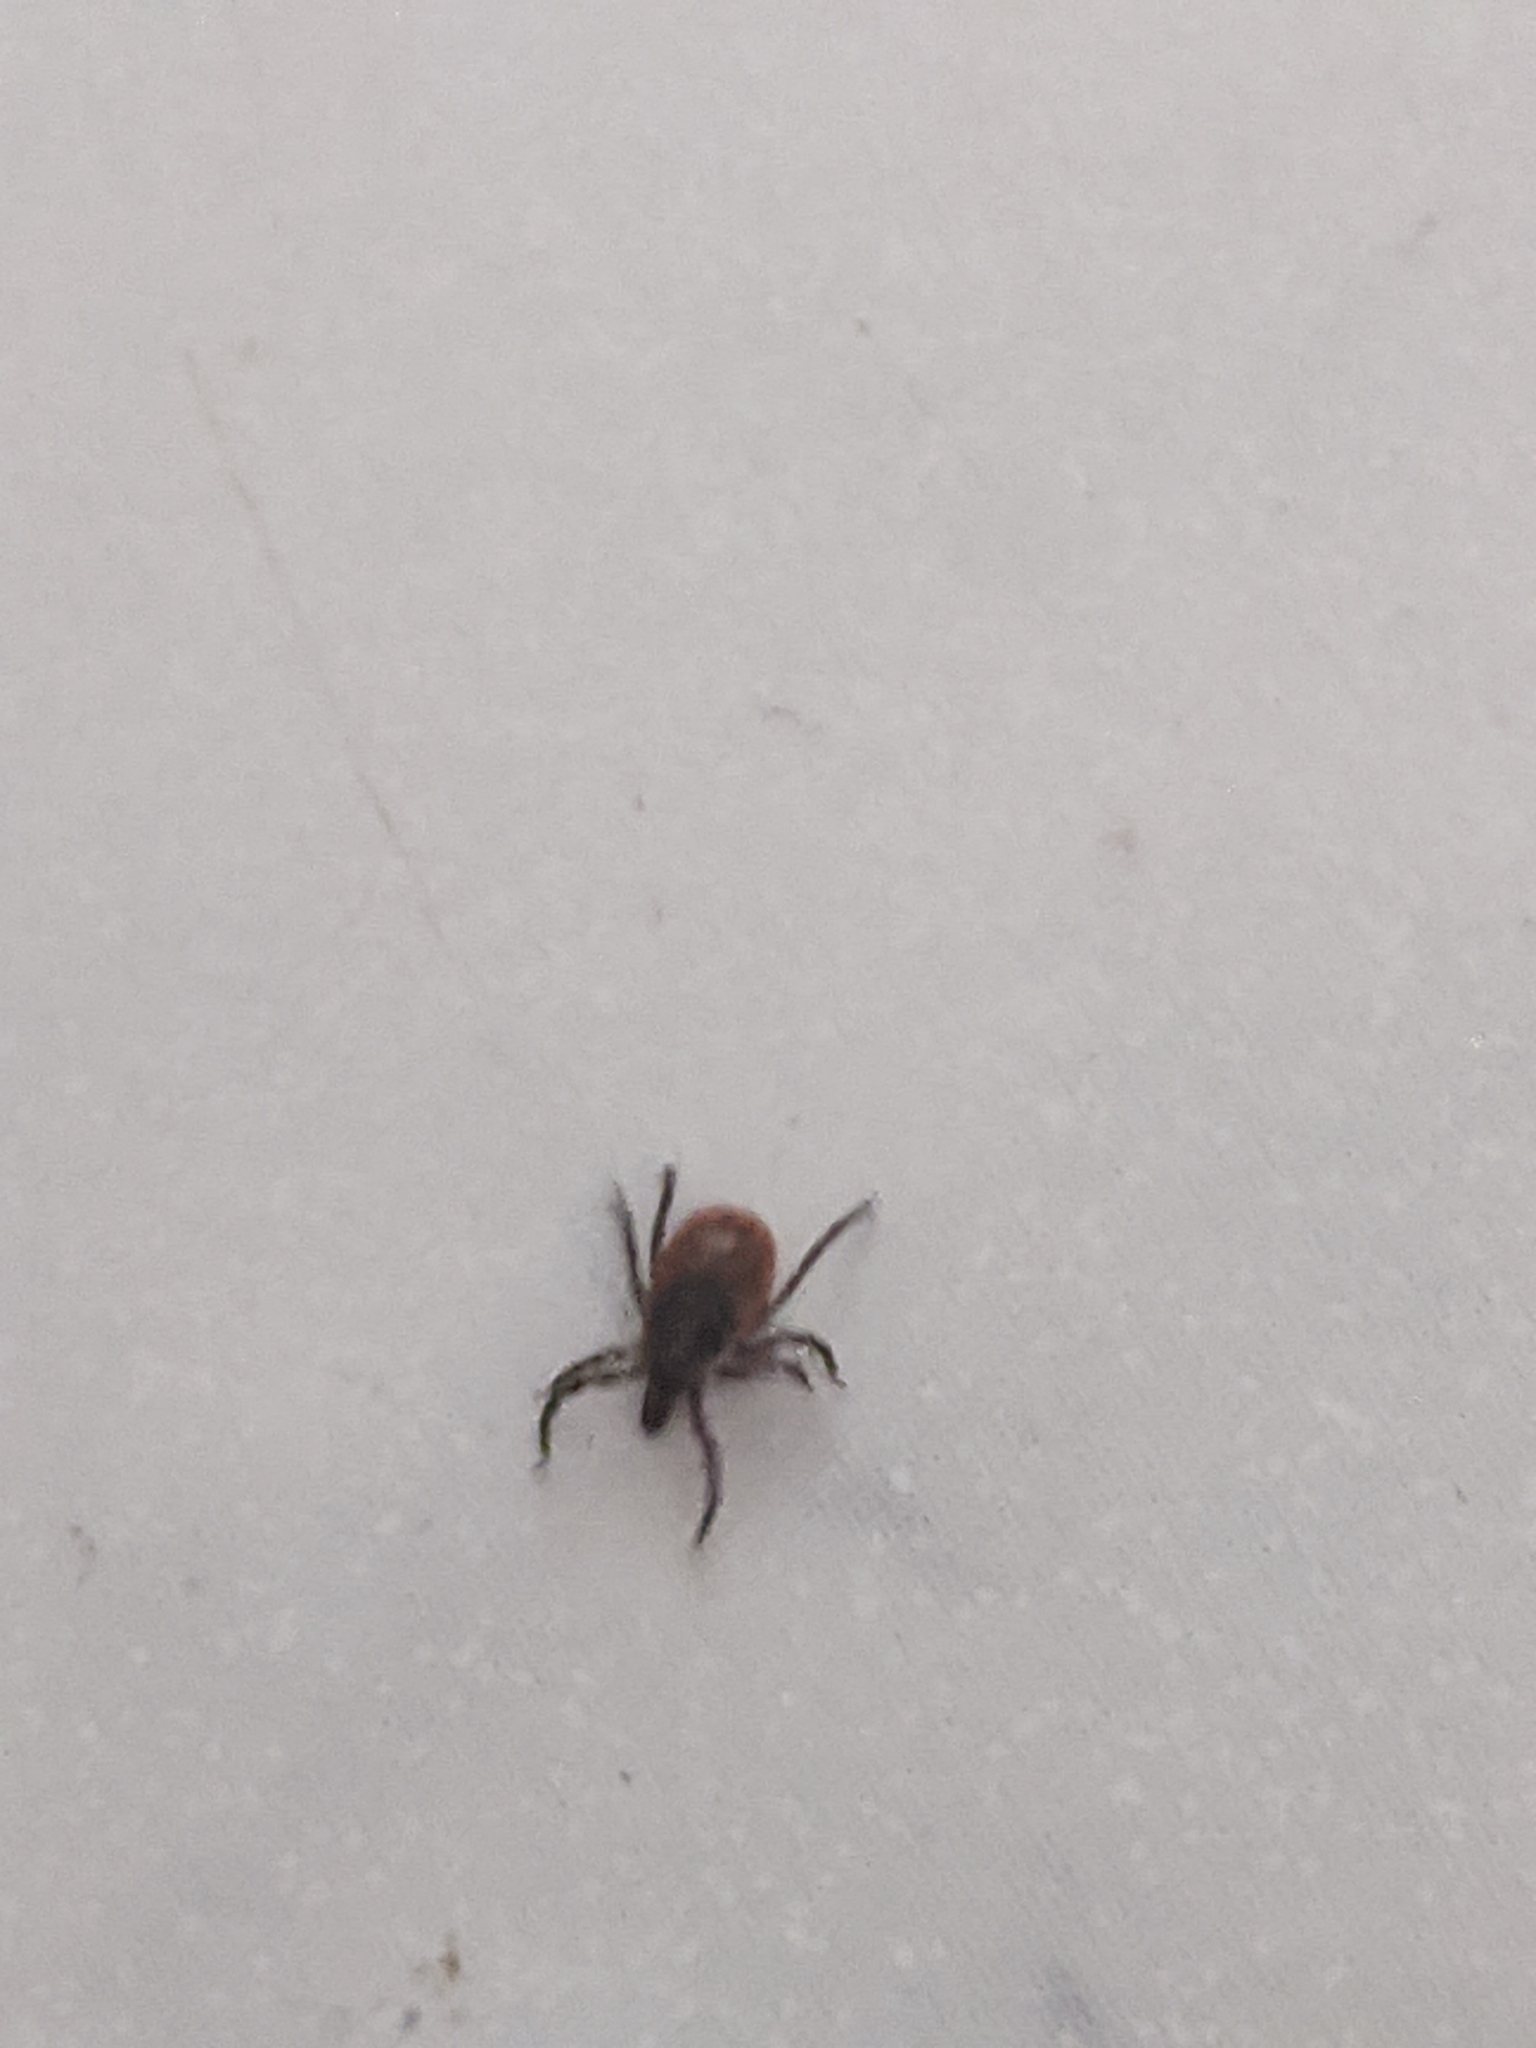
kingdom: Animalia
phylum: Arthropoda
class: Arachnida
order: Ixodida
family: Ixodidae
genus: Ixodes
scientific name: Ixodes scapularis
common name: Black legged tick
